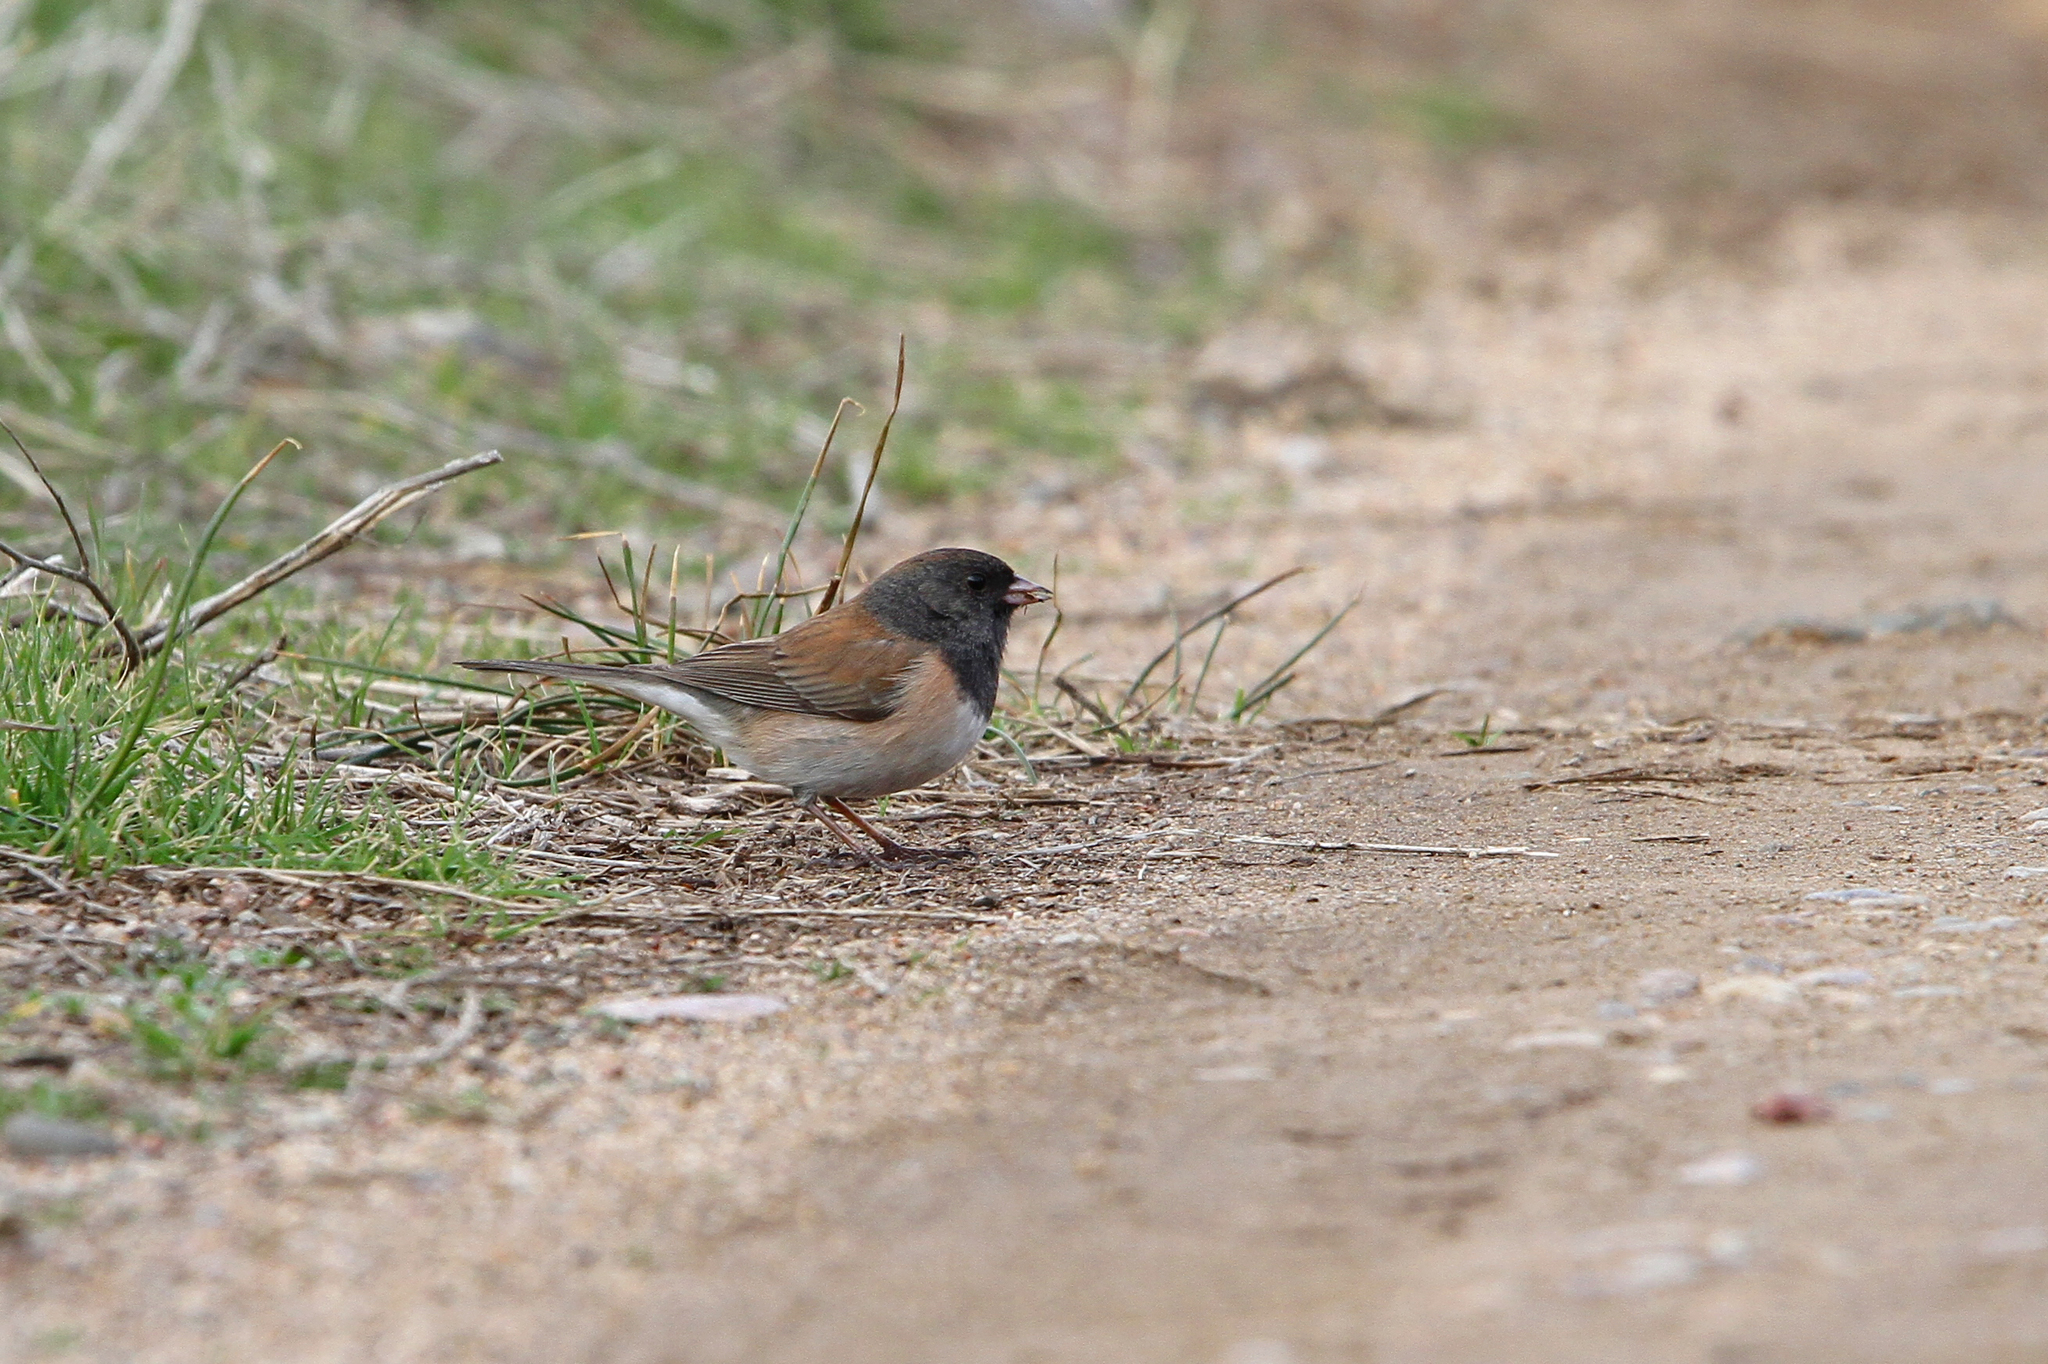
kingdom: Animalia
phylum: Chordata
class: Aves
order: Passeriformes
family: Passerellidae
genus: Junco
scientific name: Junco hyemalis
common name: Dark-eyed junco
